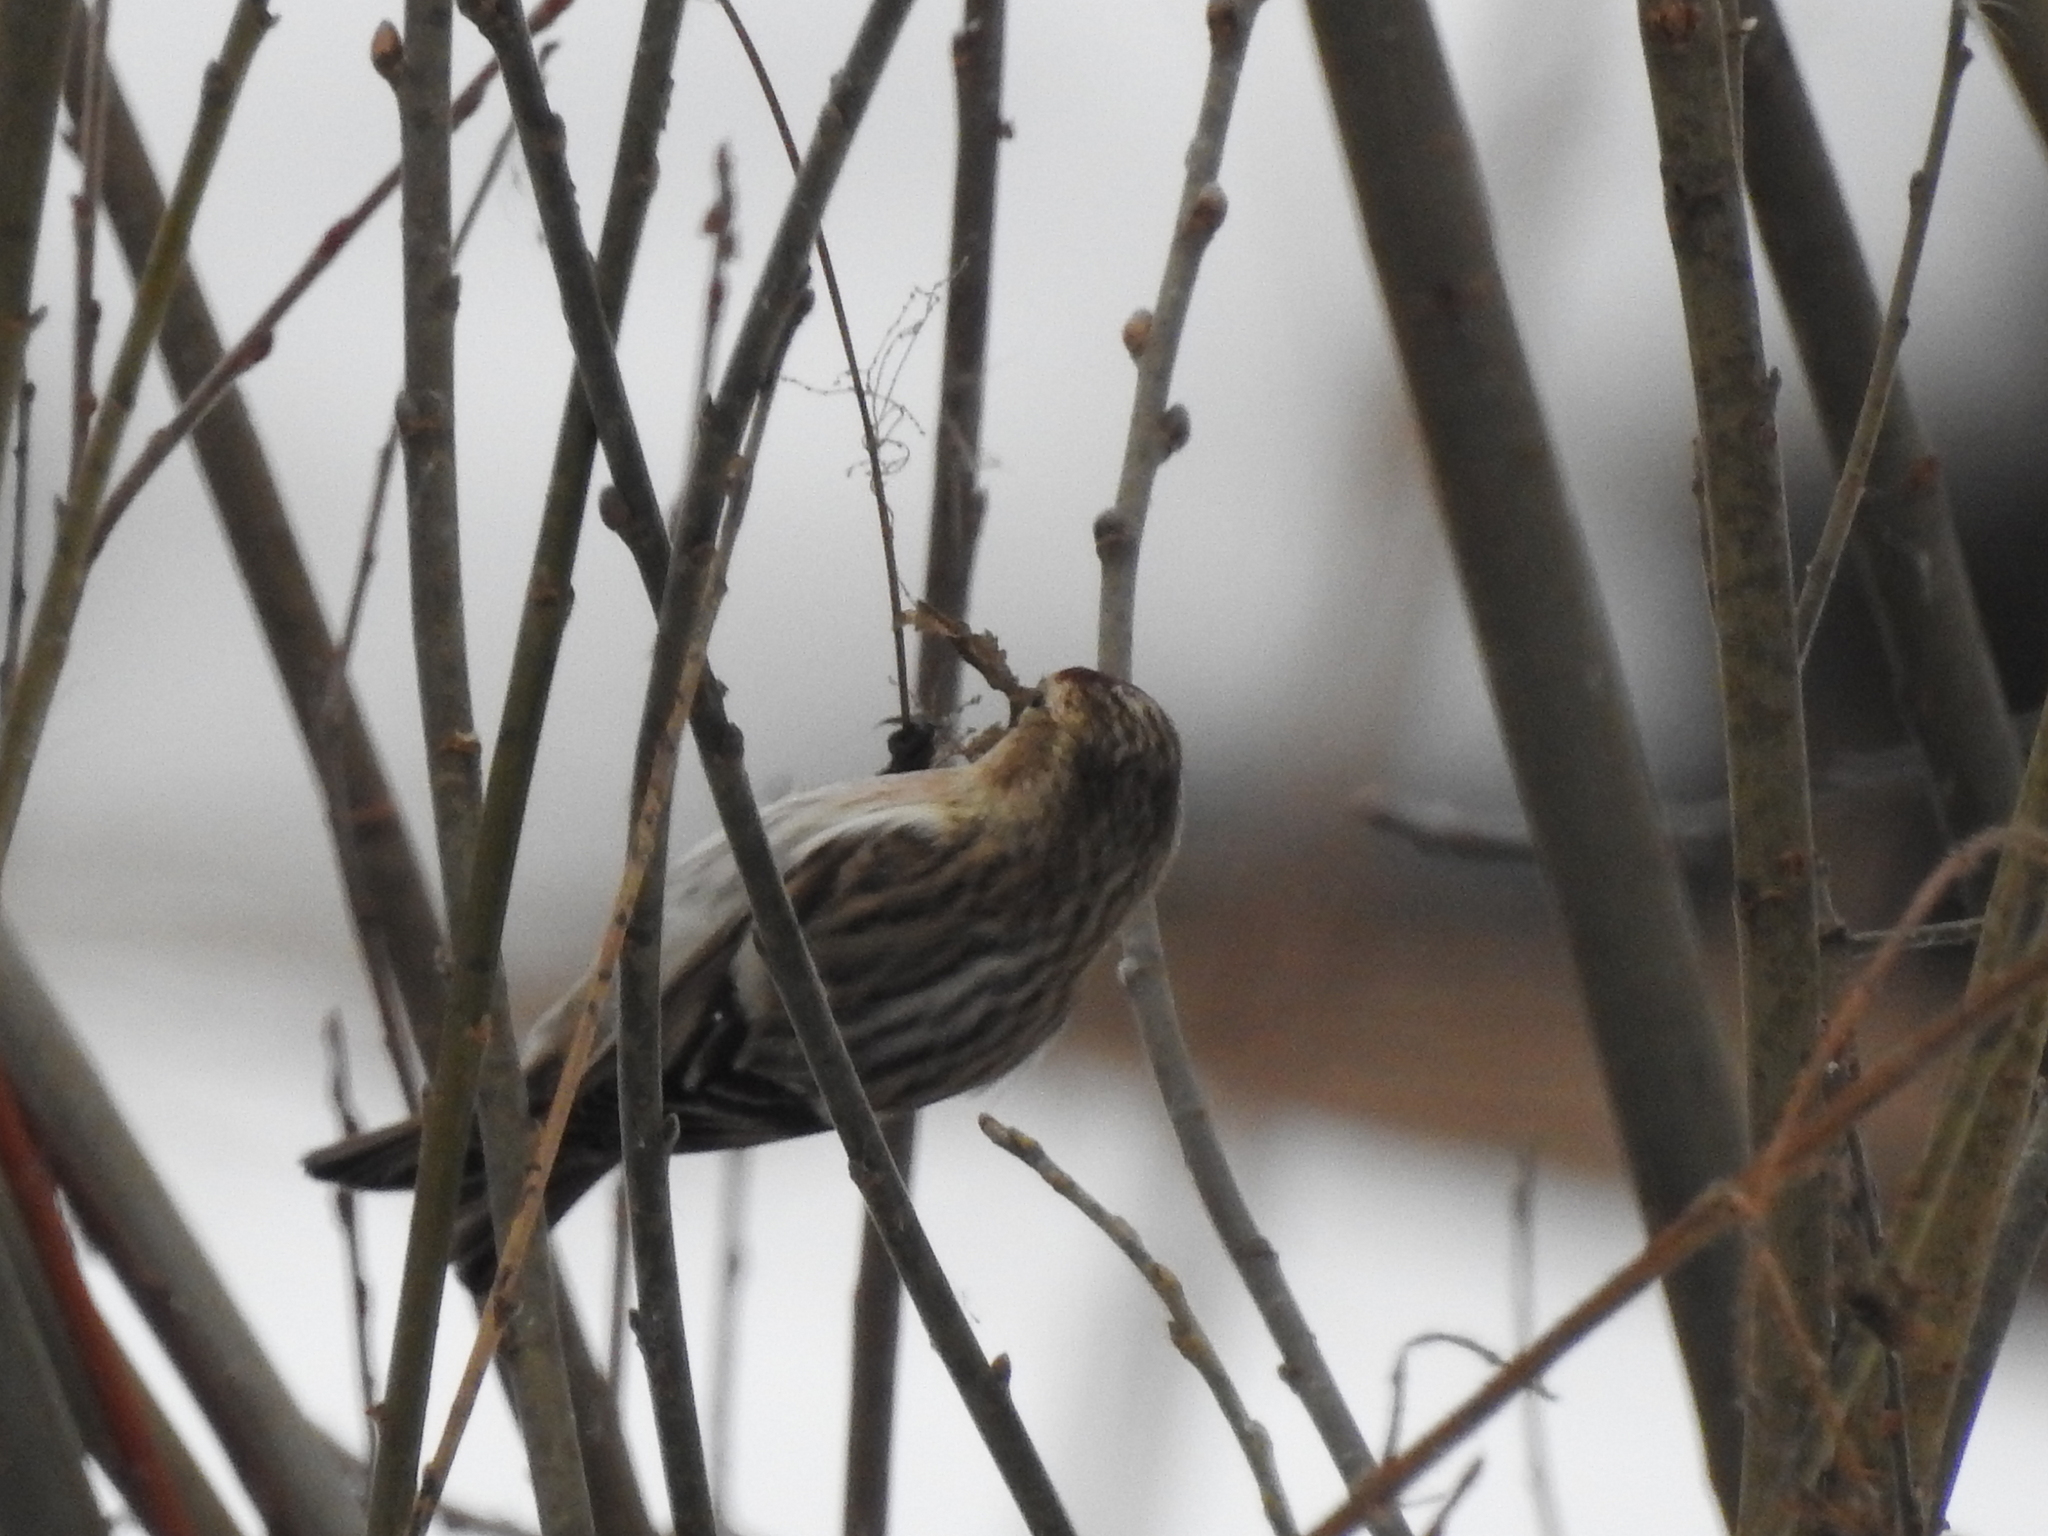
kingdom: Animalia
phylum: Chordata
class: Aves
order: Passeriformes
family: Fringillidae
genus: Acanthis
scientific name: Acanthis flammea
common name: Common redpoll
